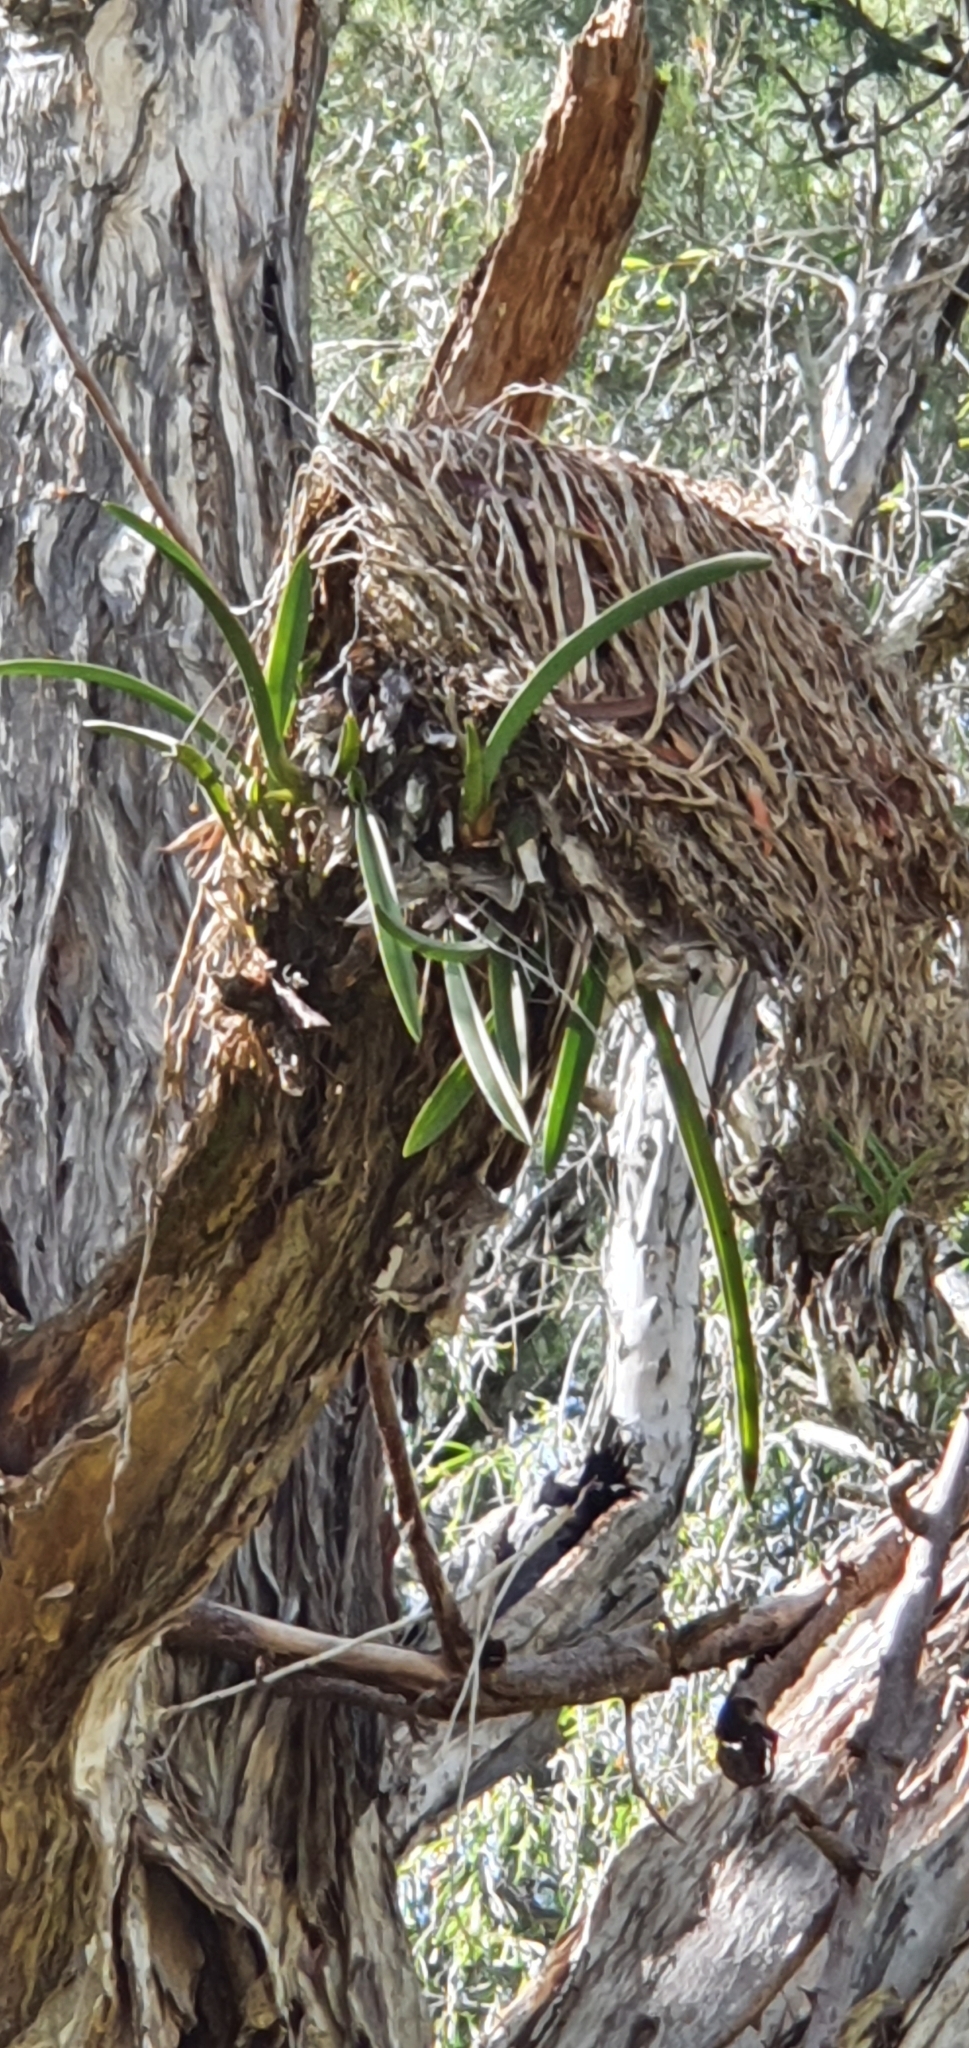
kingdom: Plantae
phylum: Tracheophyta
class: Liliopsida
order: Asparagales
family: Orchidaceae
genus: Cymbidium
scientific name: Cymbidium canaliculatum
